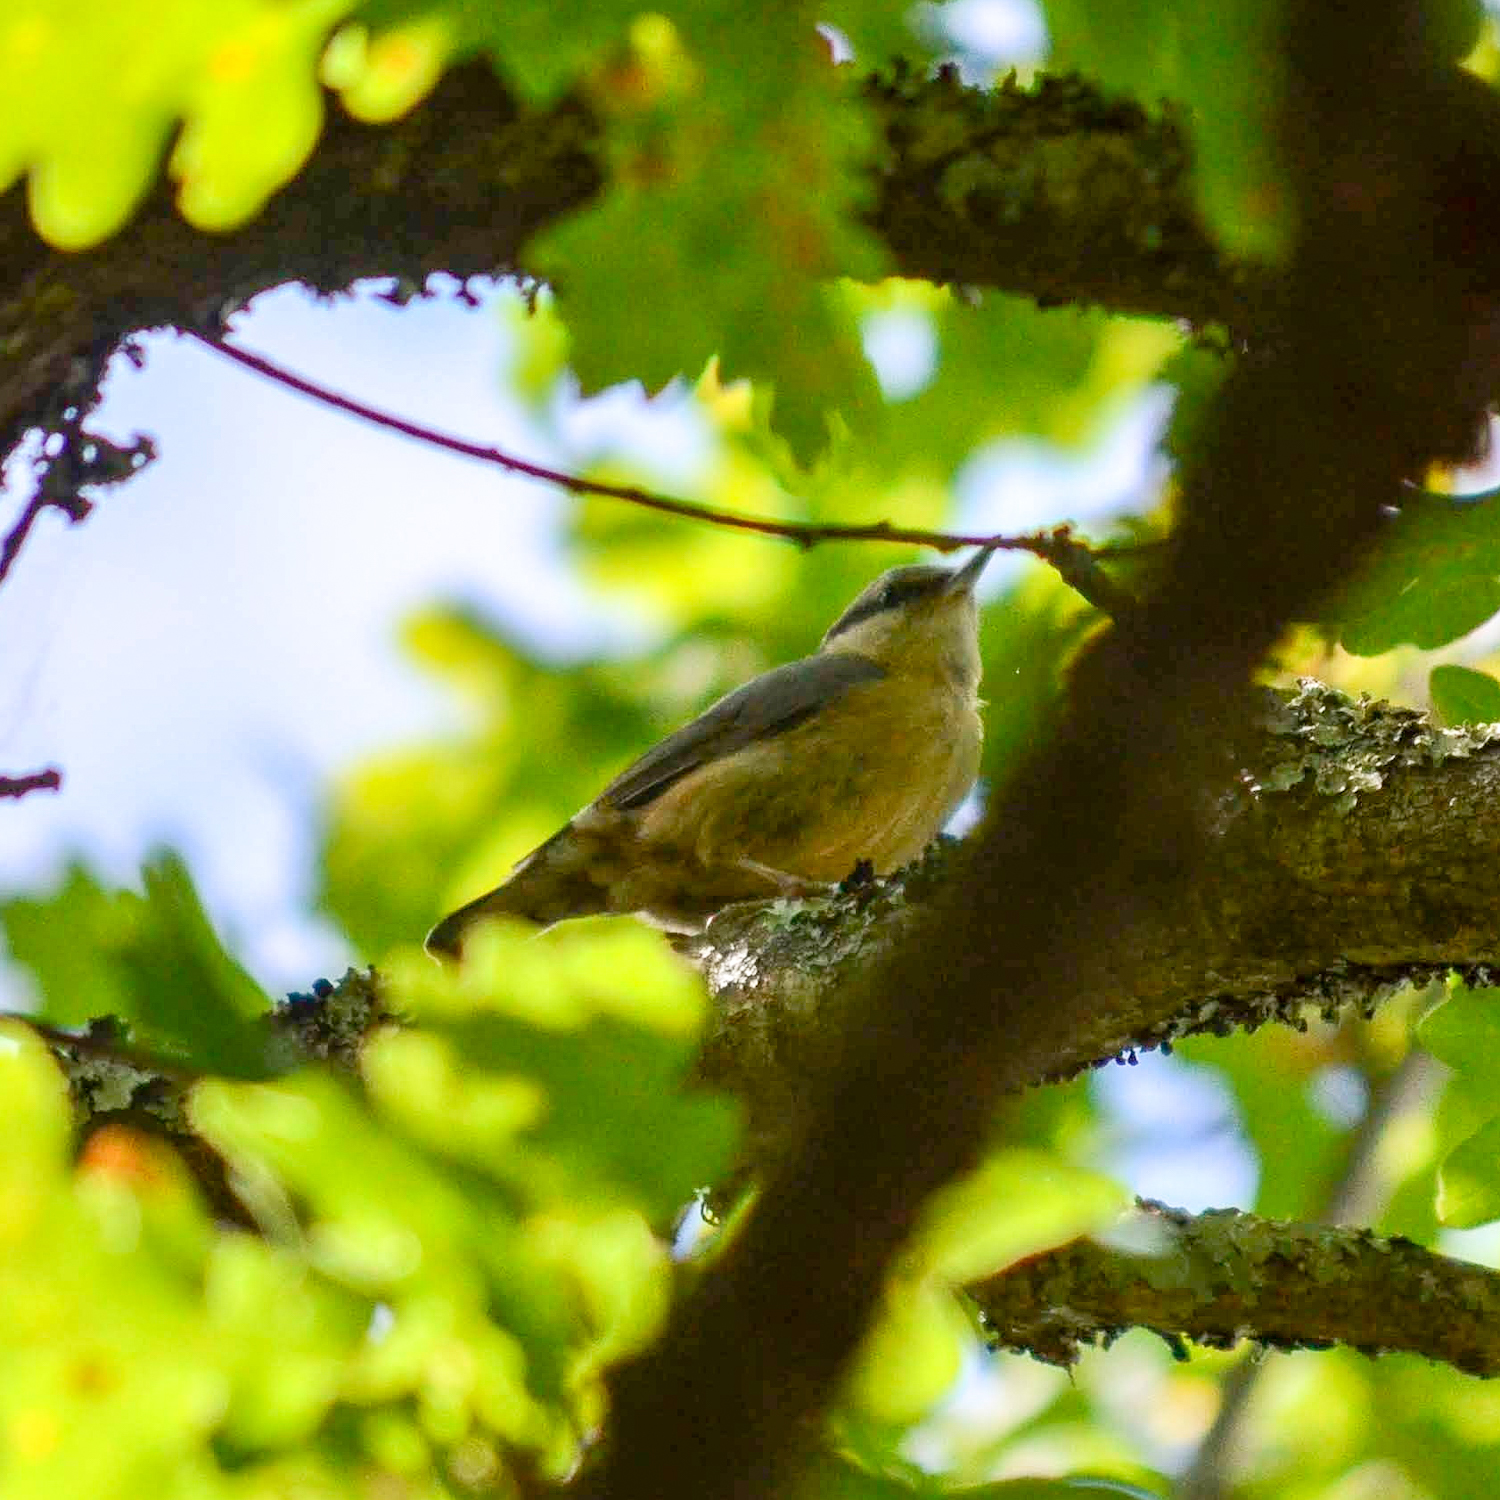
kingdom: Animalia
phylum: Chordata
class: Aves
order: Passeriformes
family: Sittidae
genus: Sitta
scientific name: Sitta europaea
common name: Eurasian nuthatch
